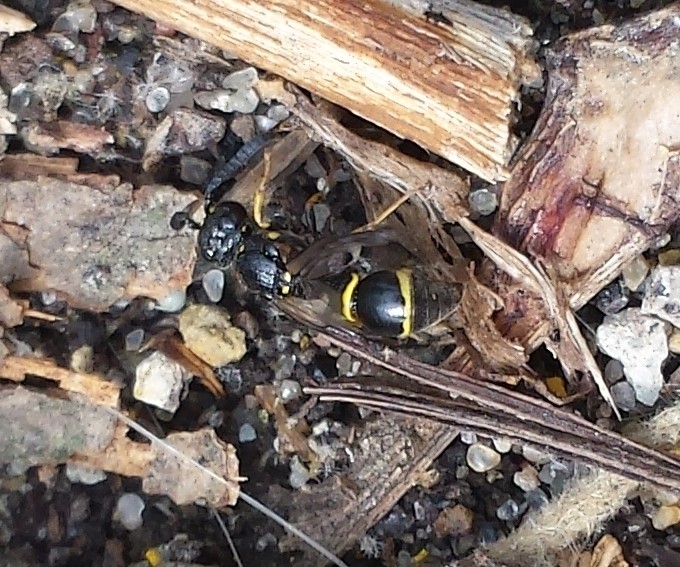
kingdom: Animalia
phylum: Arthropoda
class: Insecta
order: Hymenoptera
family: Eumenidae
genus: Symmorphus
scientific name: Symmorphus
